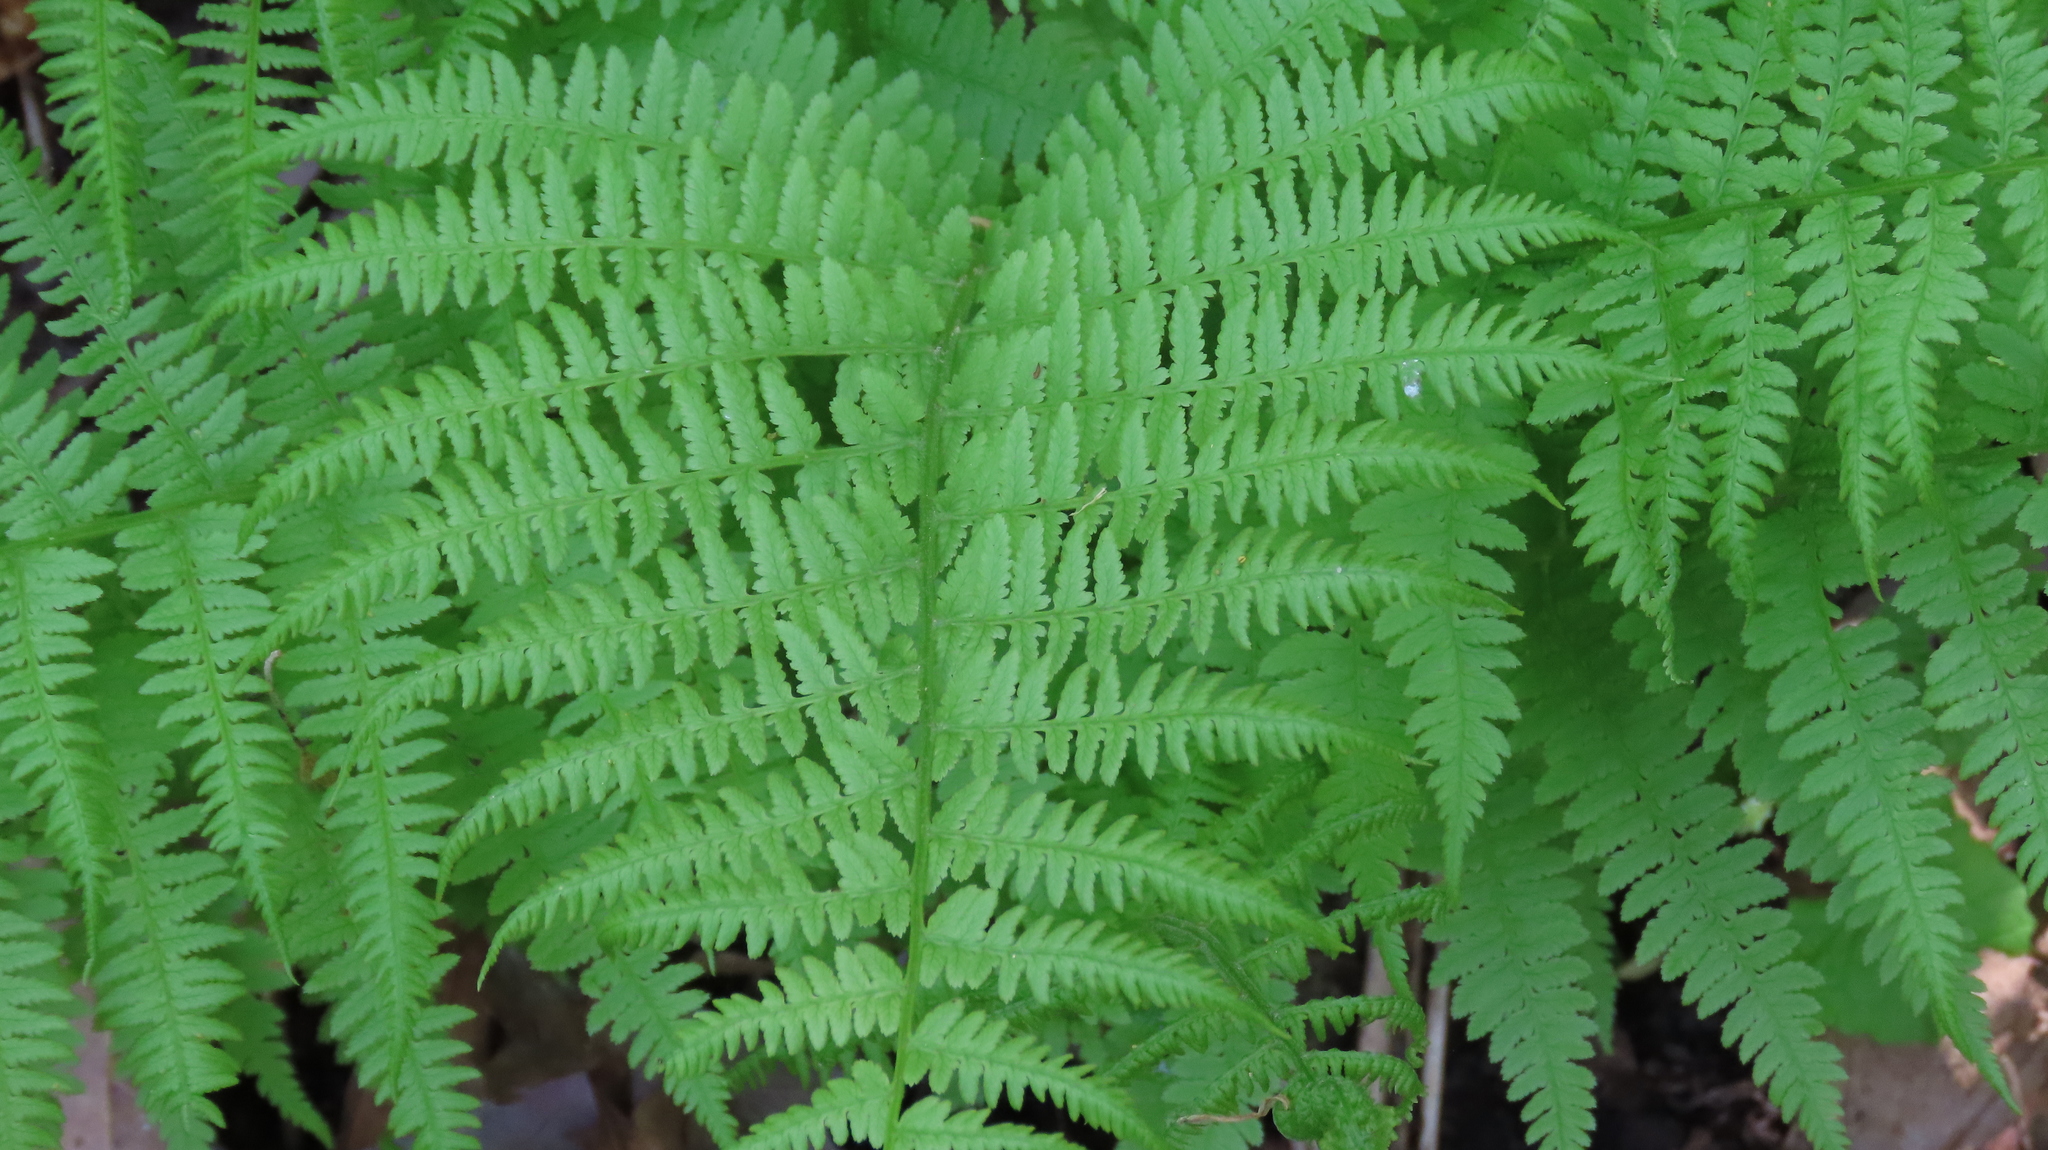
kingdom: Plantae
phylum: Tracheophyta
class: Polypodiopsida
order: Polypodiales
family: Athyriaceae
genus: Athyrium
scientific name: Athyrium angustum
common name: Northern lady fern
